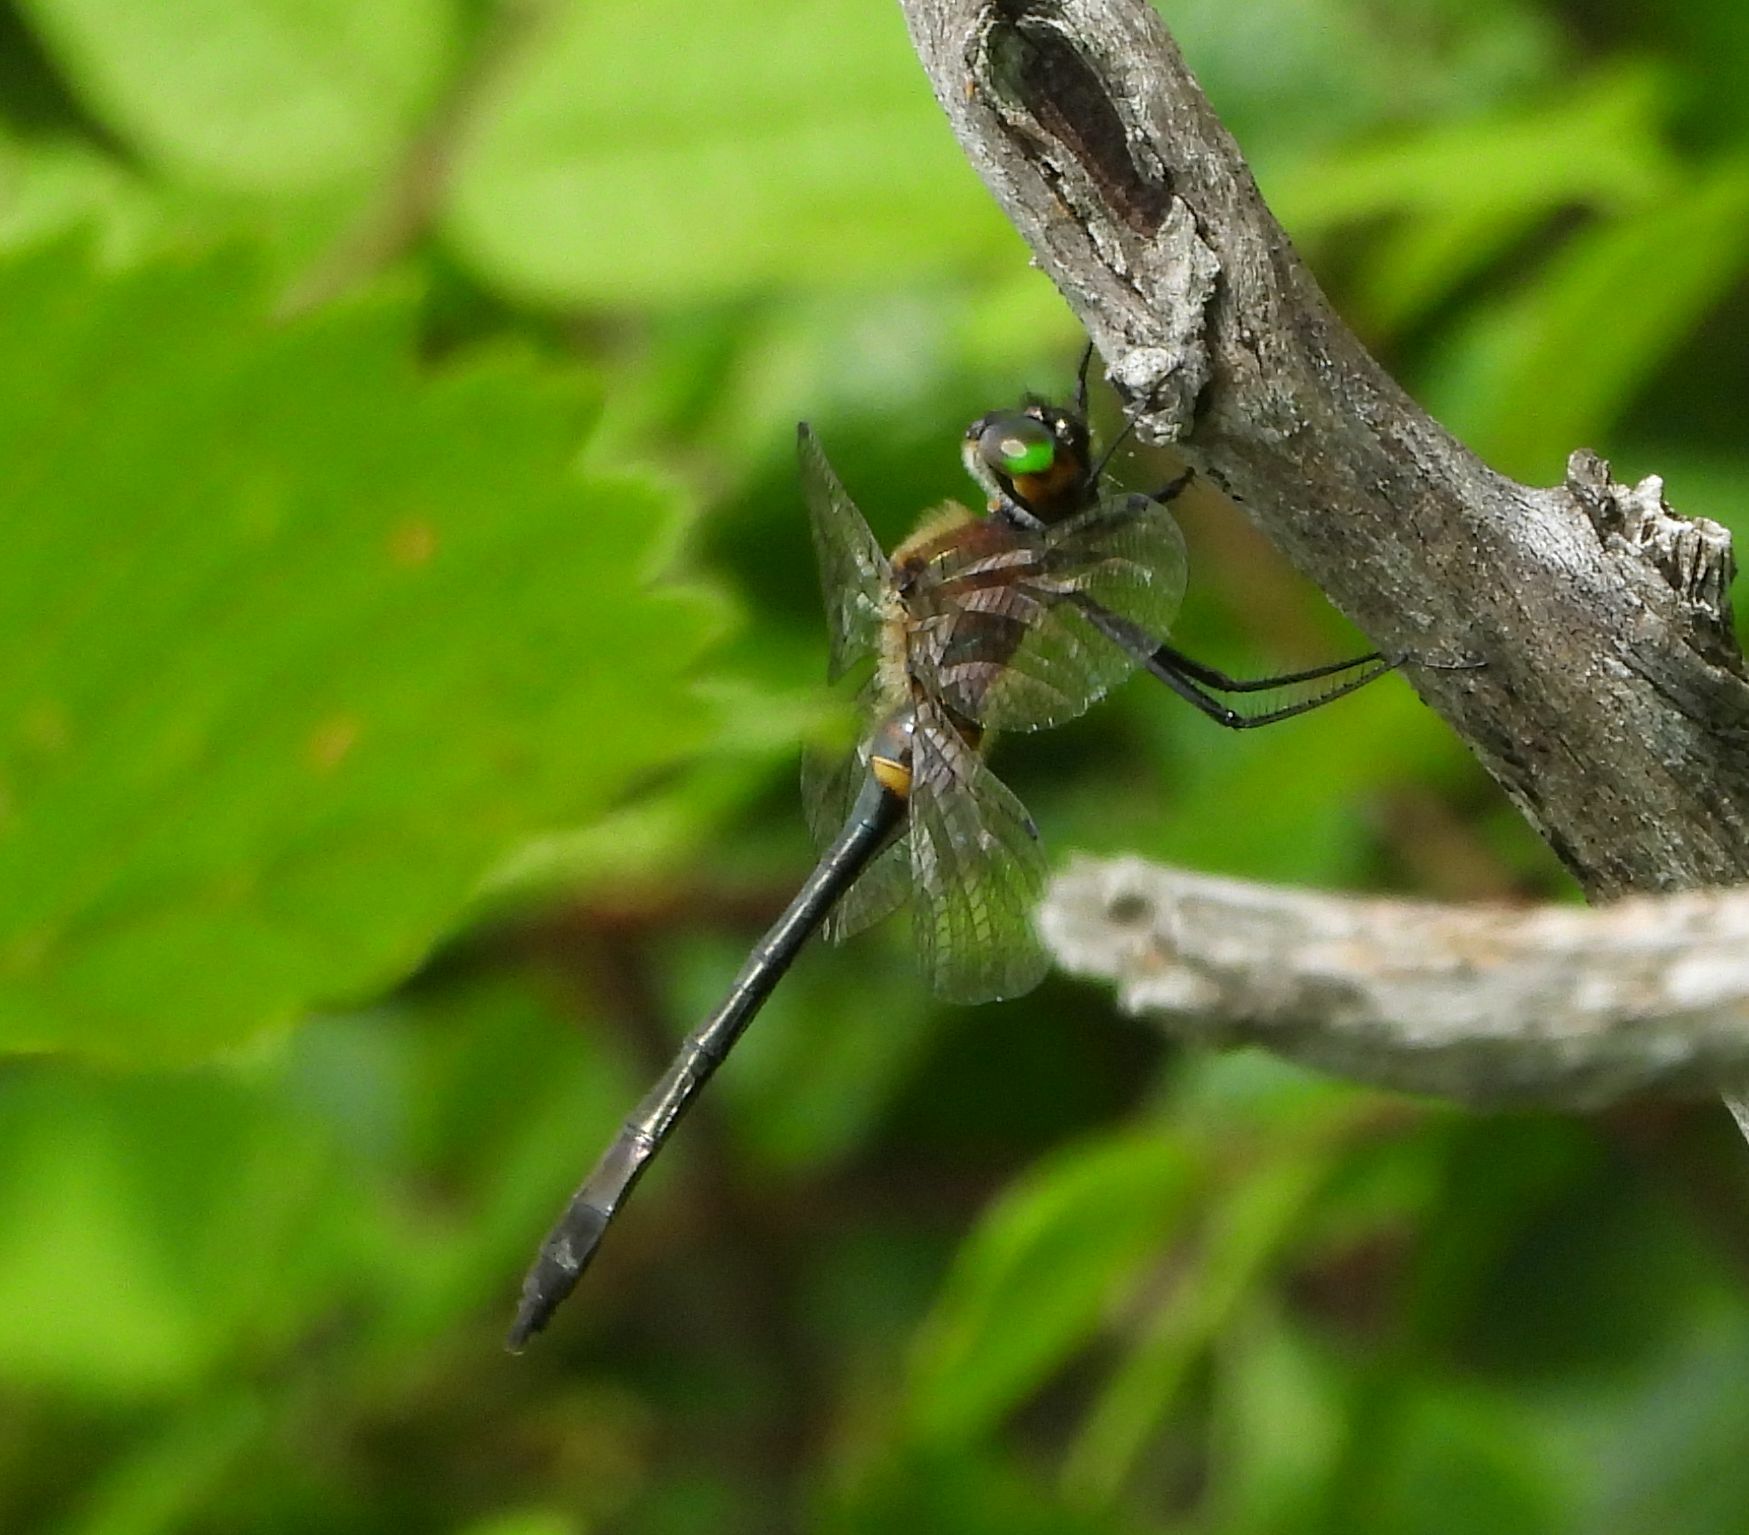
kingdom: Animalia
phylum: Arthropoda
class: Insecta
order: Odonata
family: Corduliidae
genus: Dorocordulia
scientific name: Dorocordulia libera
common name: Racket-tailed emerald
